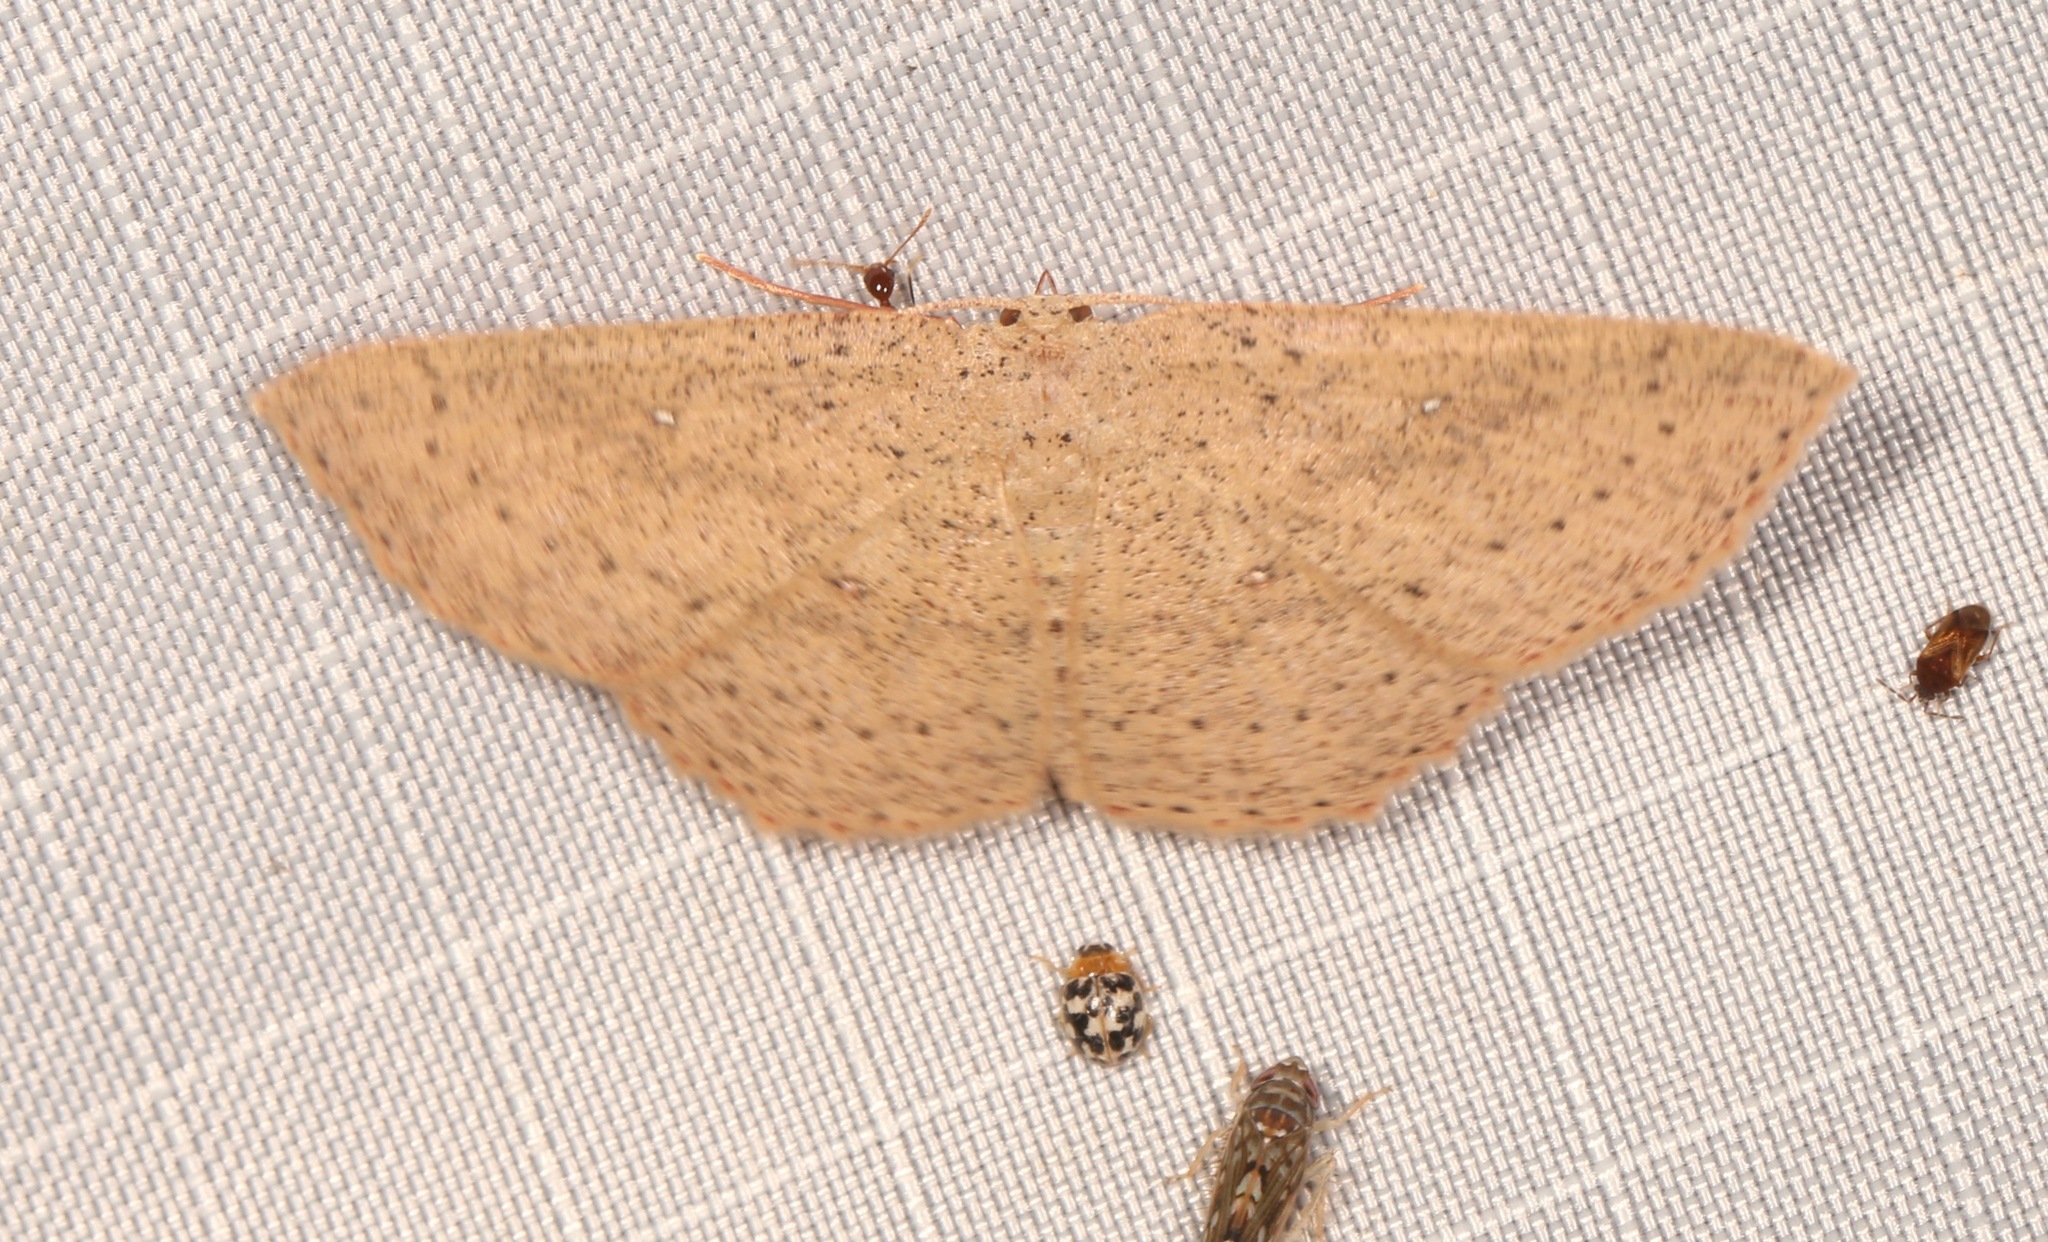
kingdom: Animalia
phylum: Arthropoda
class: Insecta
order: Lepidoptera
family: Geometridae
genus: Cyclophora
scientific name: Cyclophora myrtaria
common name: Waxmyrtle wave moth
